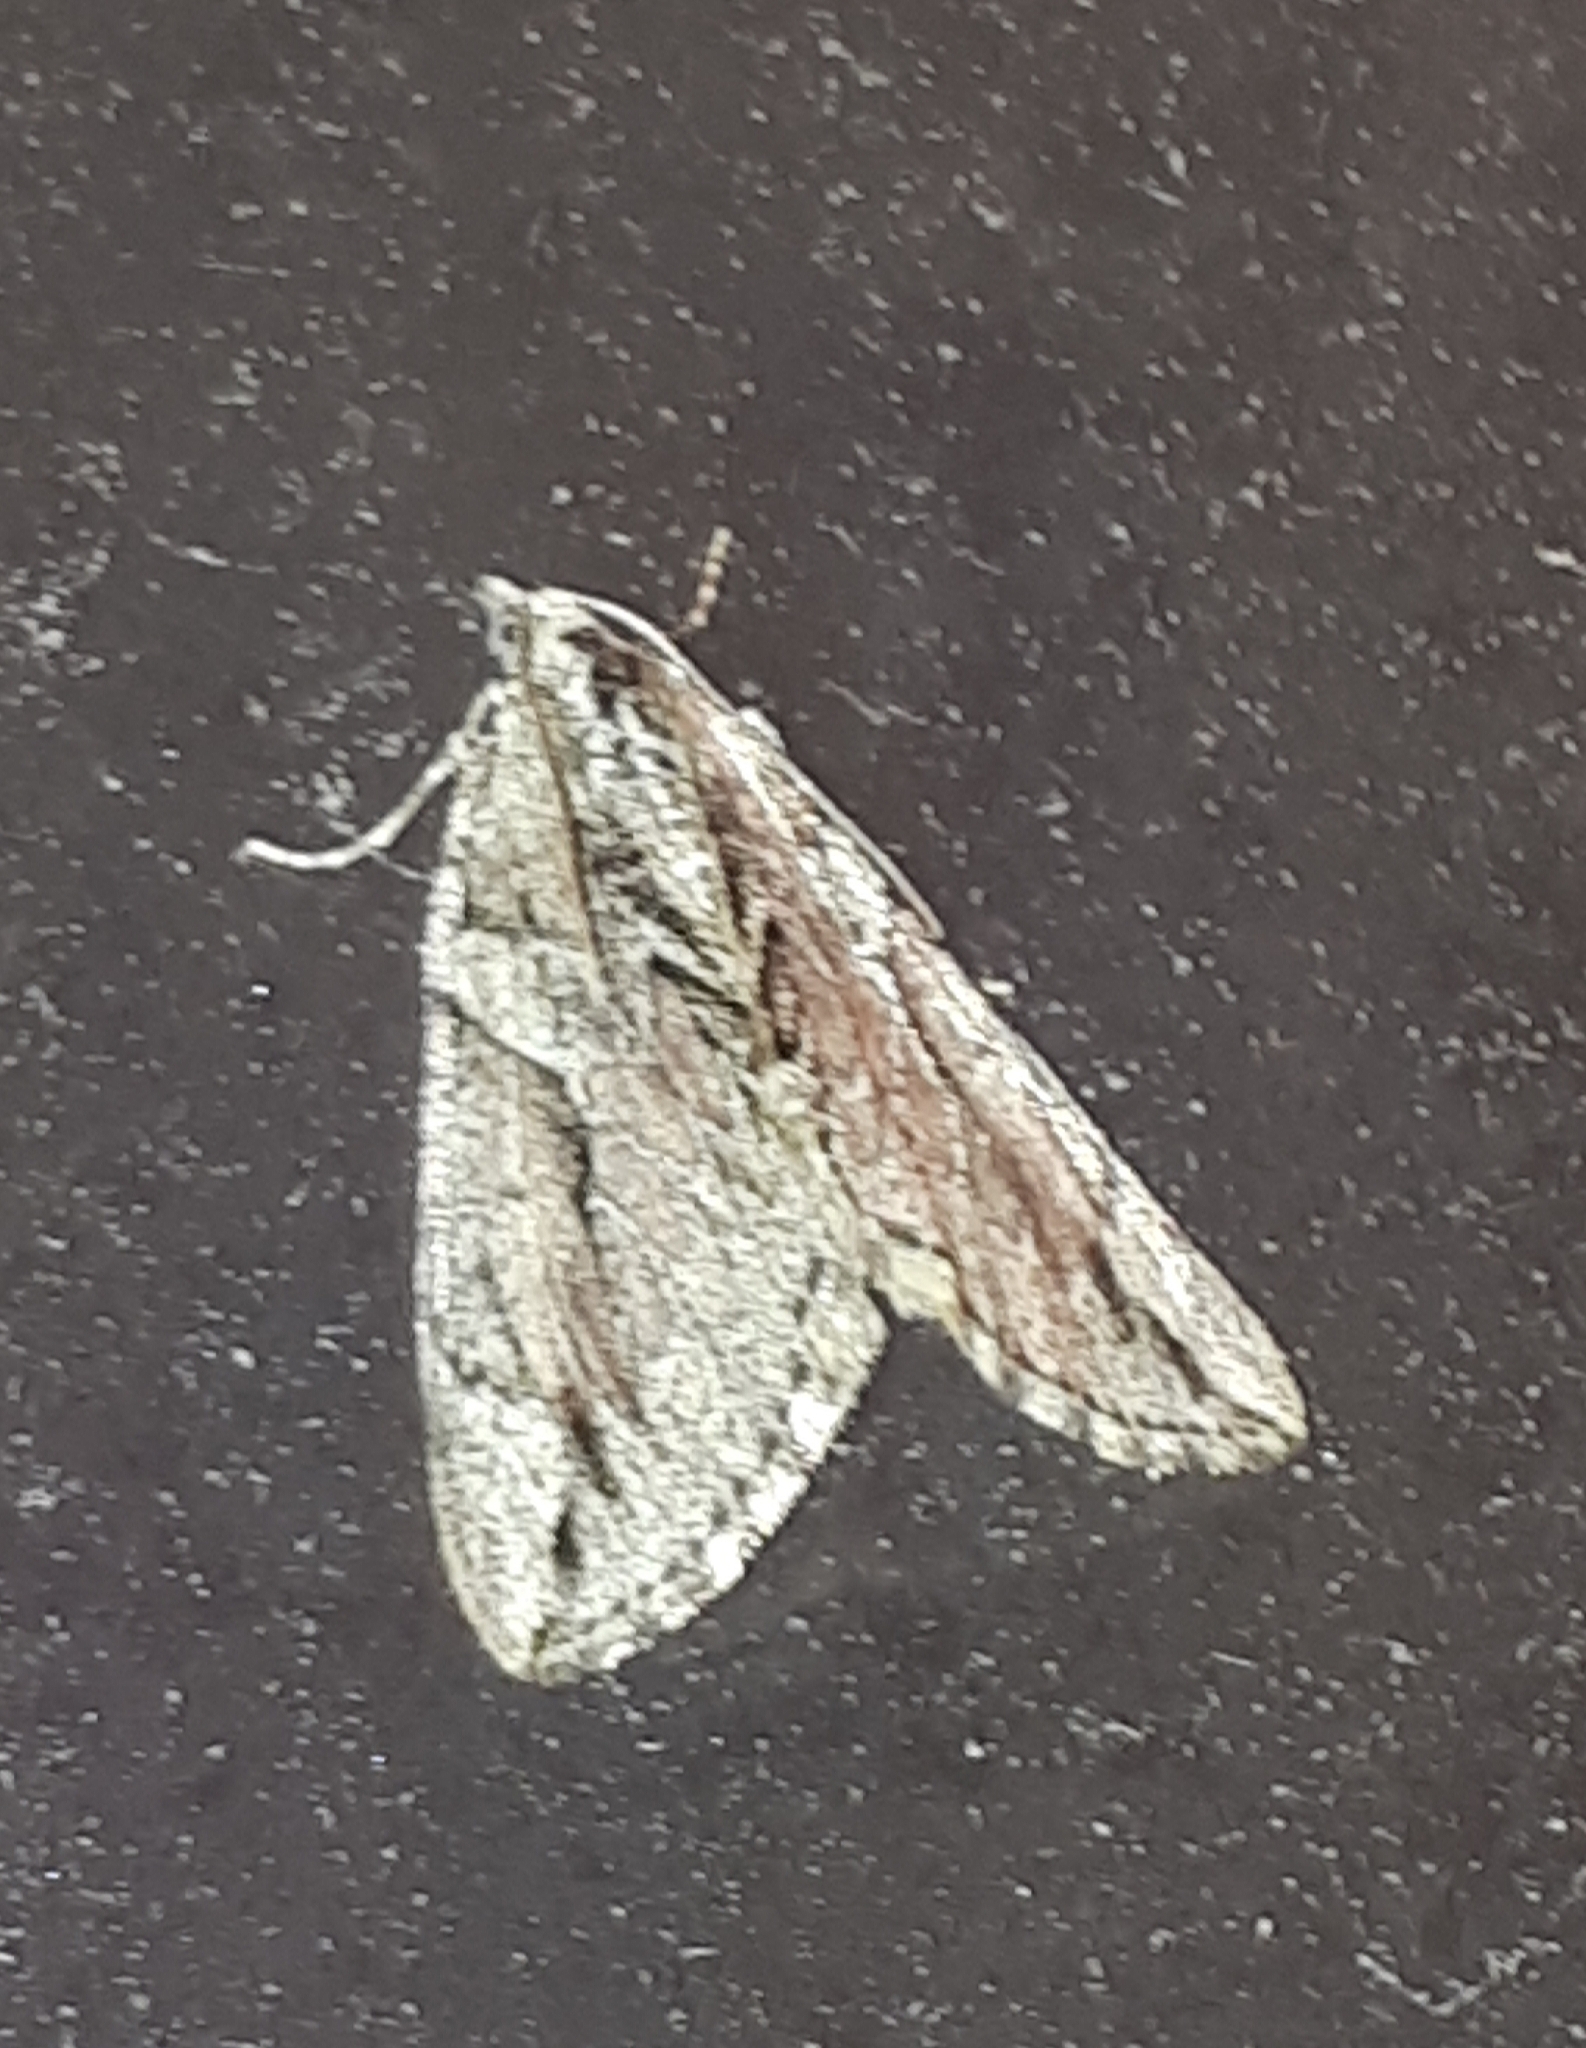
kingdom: Animalia
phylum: Arthropoda
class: Insecta
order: Lepidoptera
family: Geometridae
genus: Thera
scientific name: Thera cupressata
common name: Cypress carpet
